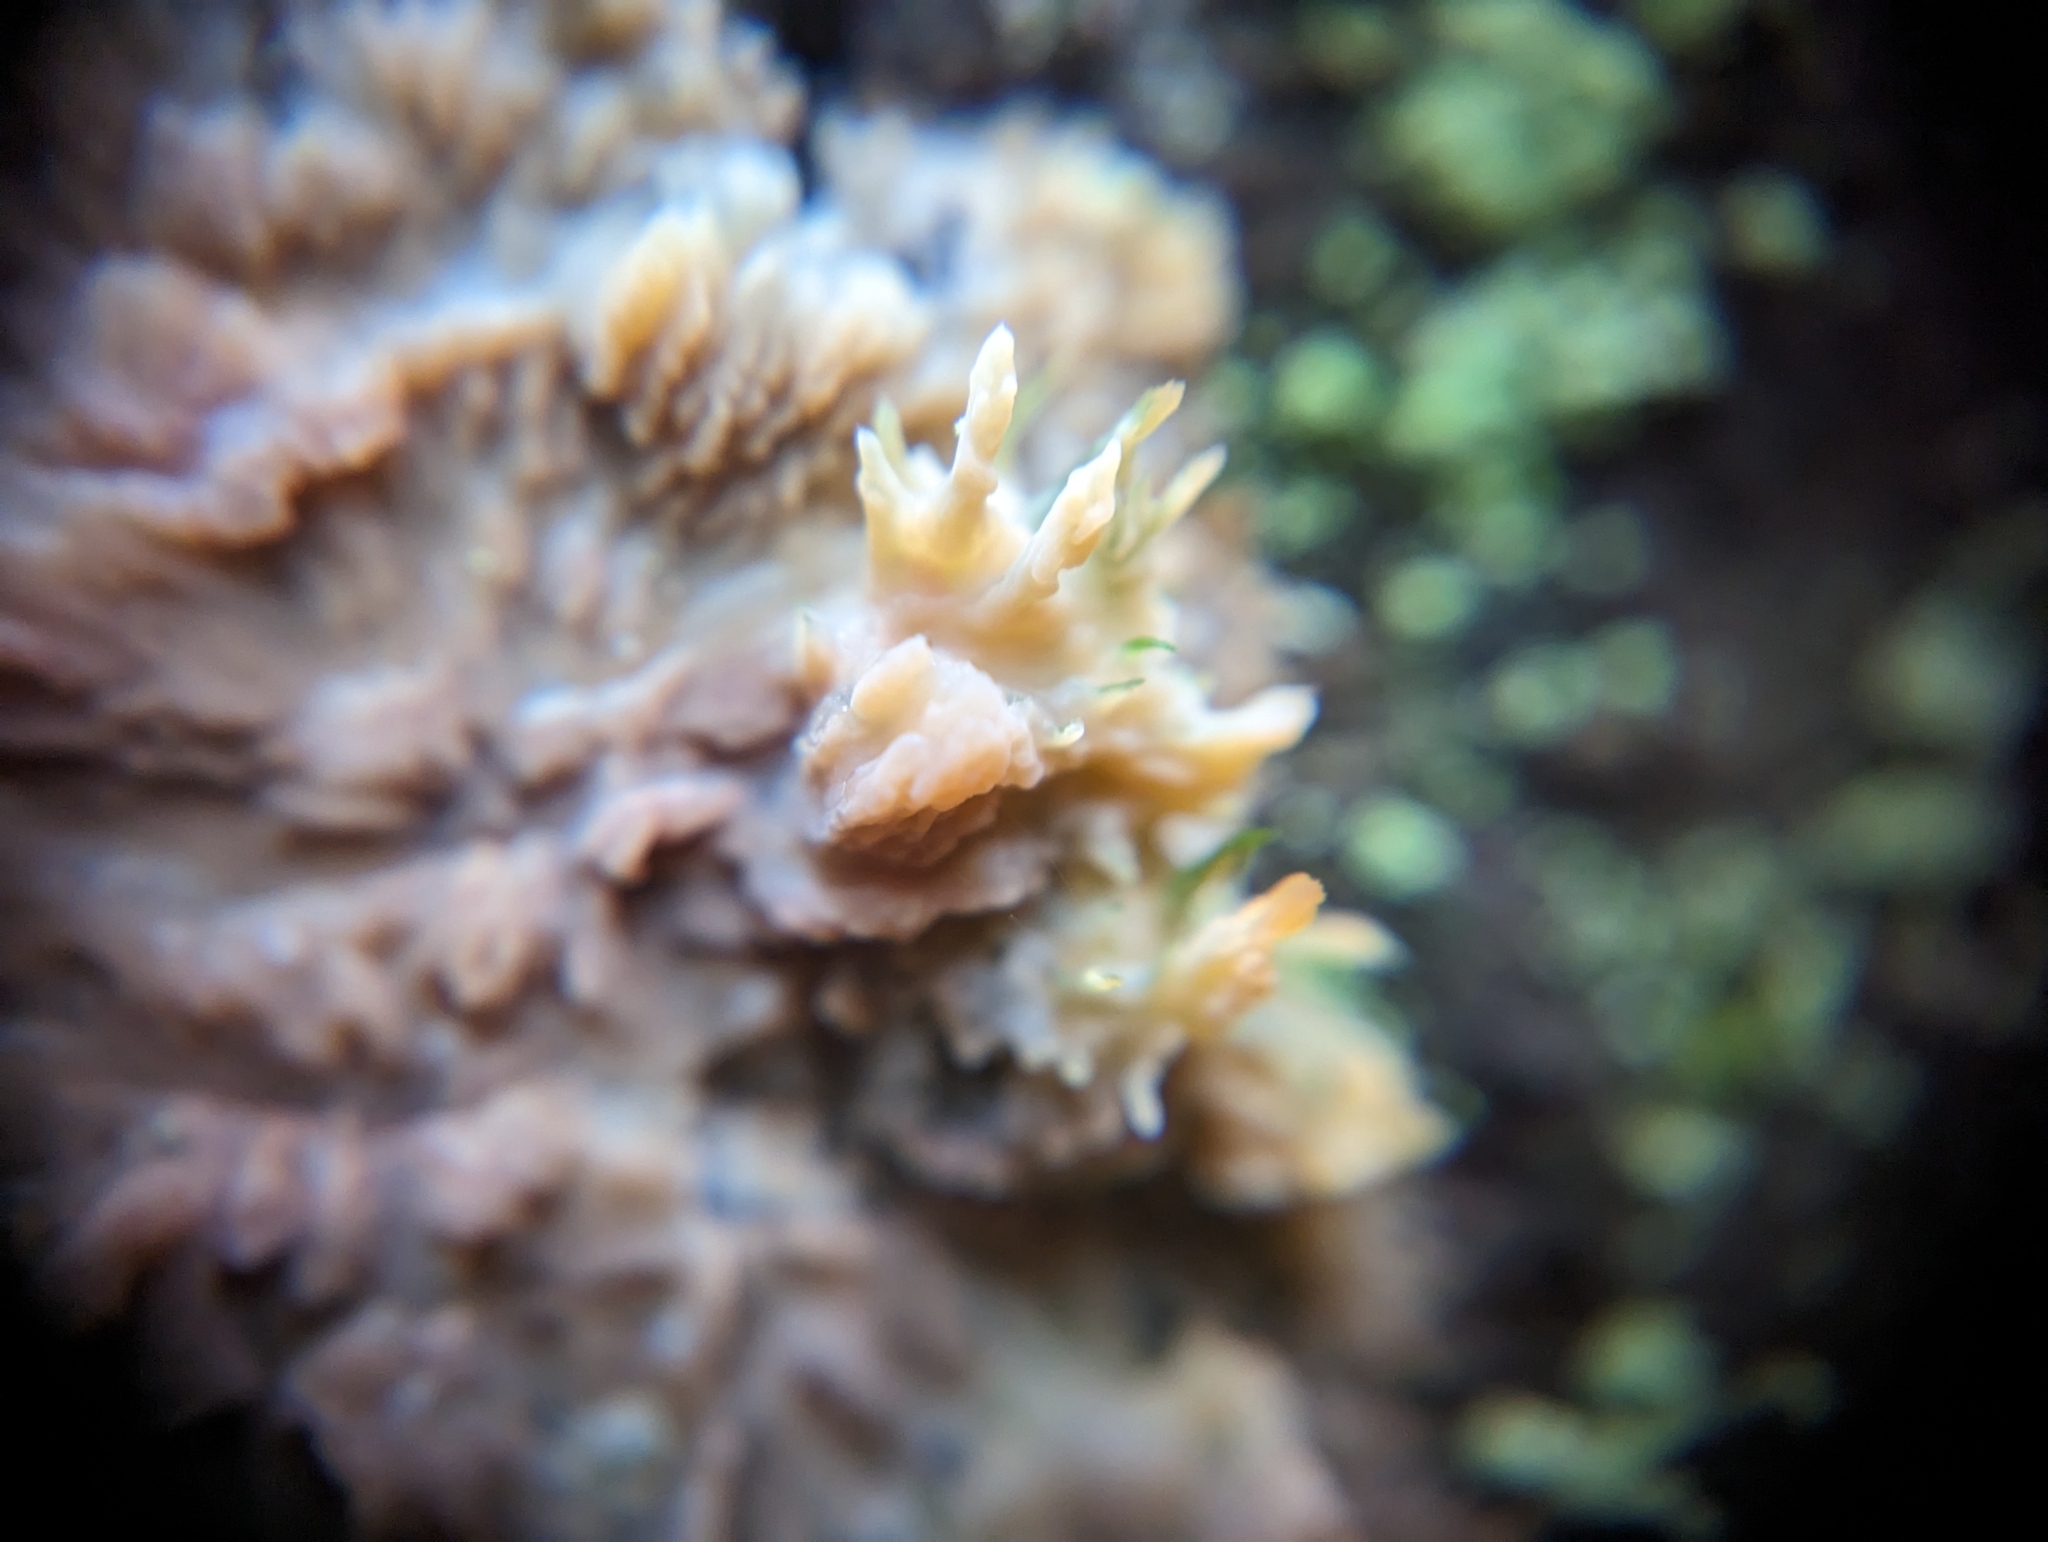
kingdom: Fungi
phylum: Basidiomycota
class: Agaricomycetes
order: Polyporales
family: Meruliaceae
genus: Phlebia
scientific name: Phlebia radiata
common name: Wrinkled crust
